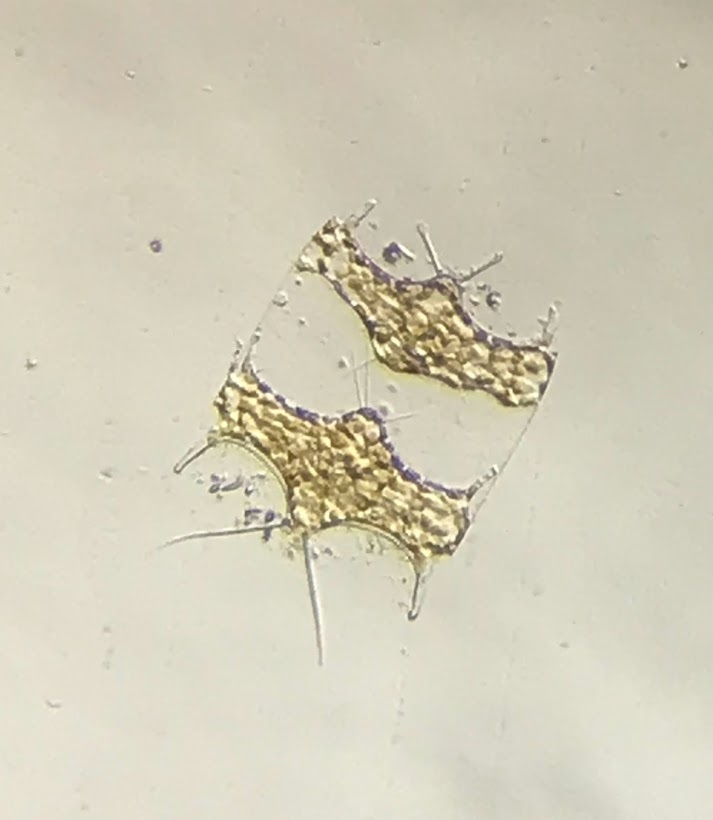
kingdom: Chromista
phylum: Ochrophyta
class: Bacillariophyceae
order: Triceratiales
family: Triceratiaceae
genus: Hobaniella
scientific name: Hobaniella longicruris
